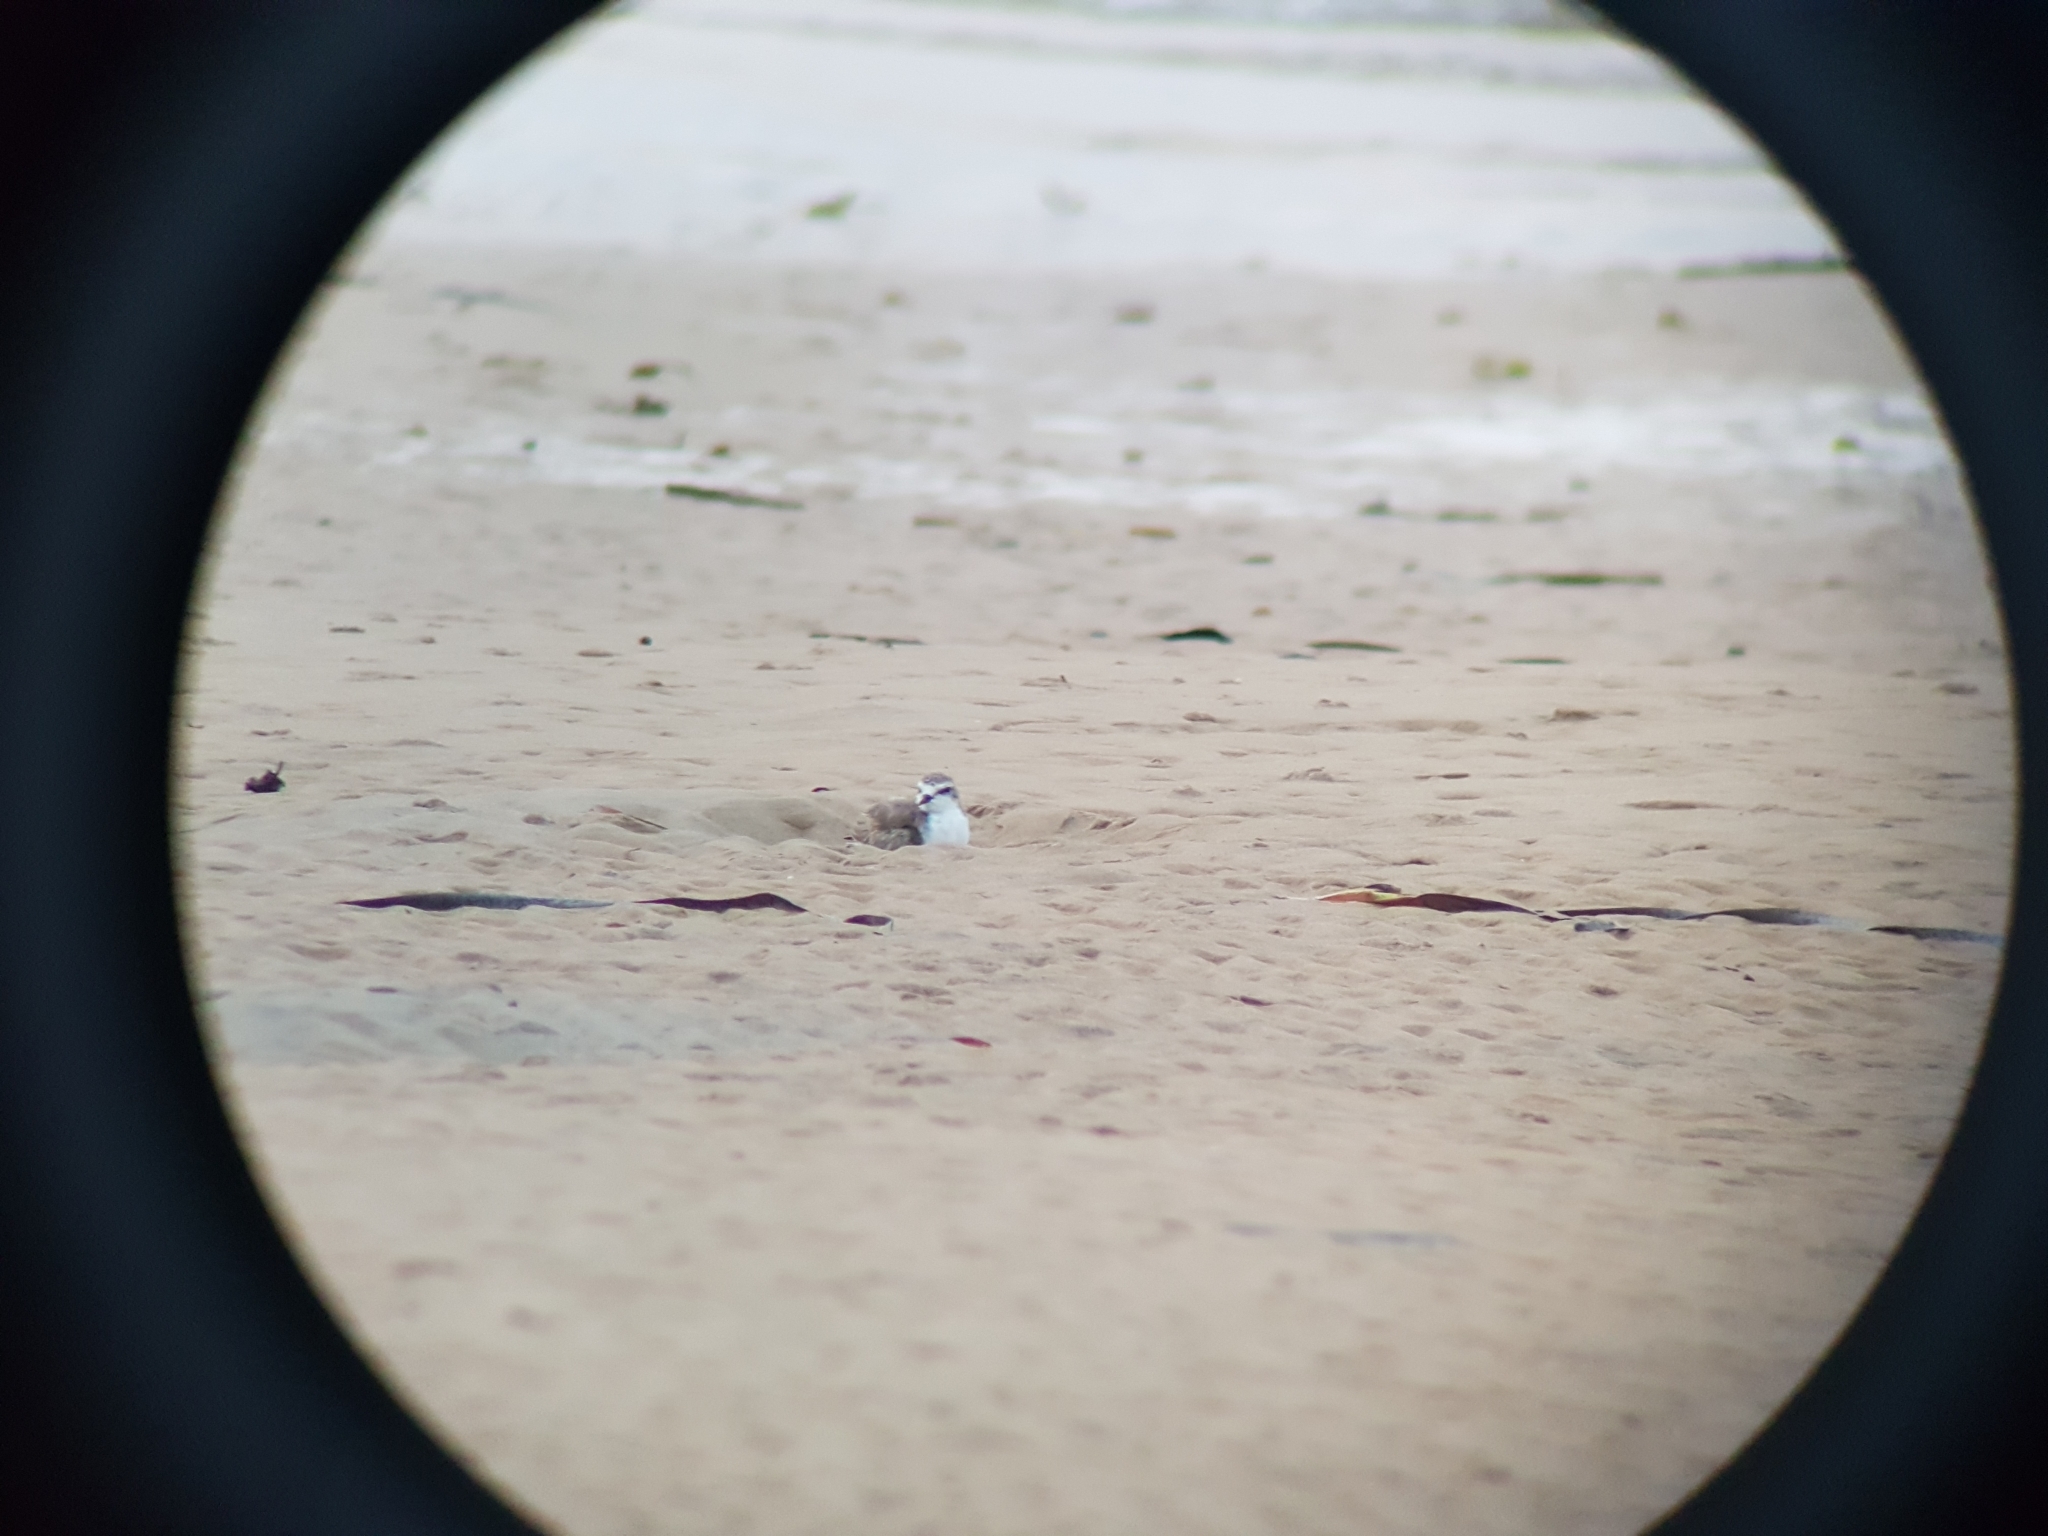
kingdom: Animalia
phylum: Chordata
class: Aves
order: Charadriiformes
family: Charadriidae
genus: Anarhynchus
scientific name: Anarhynchus
